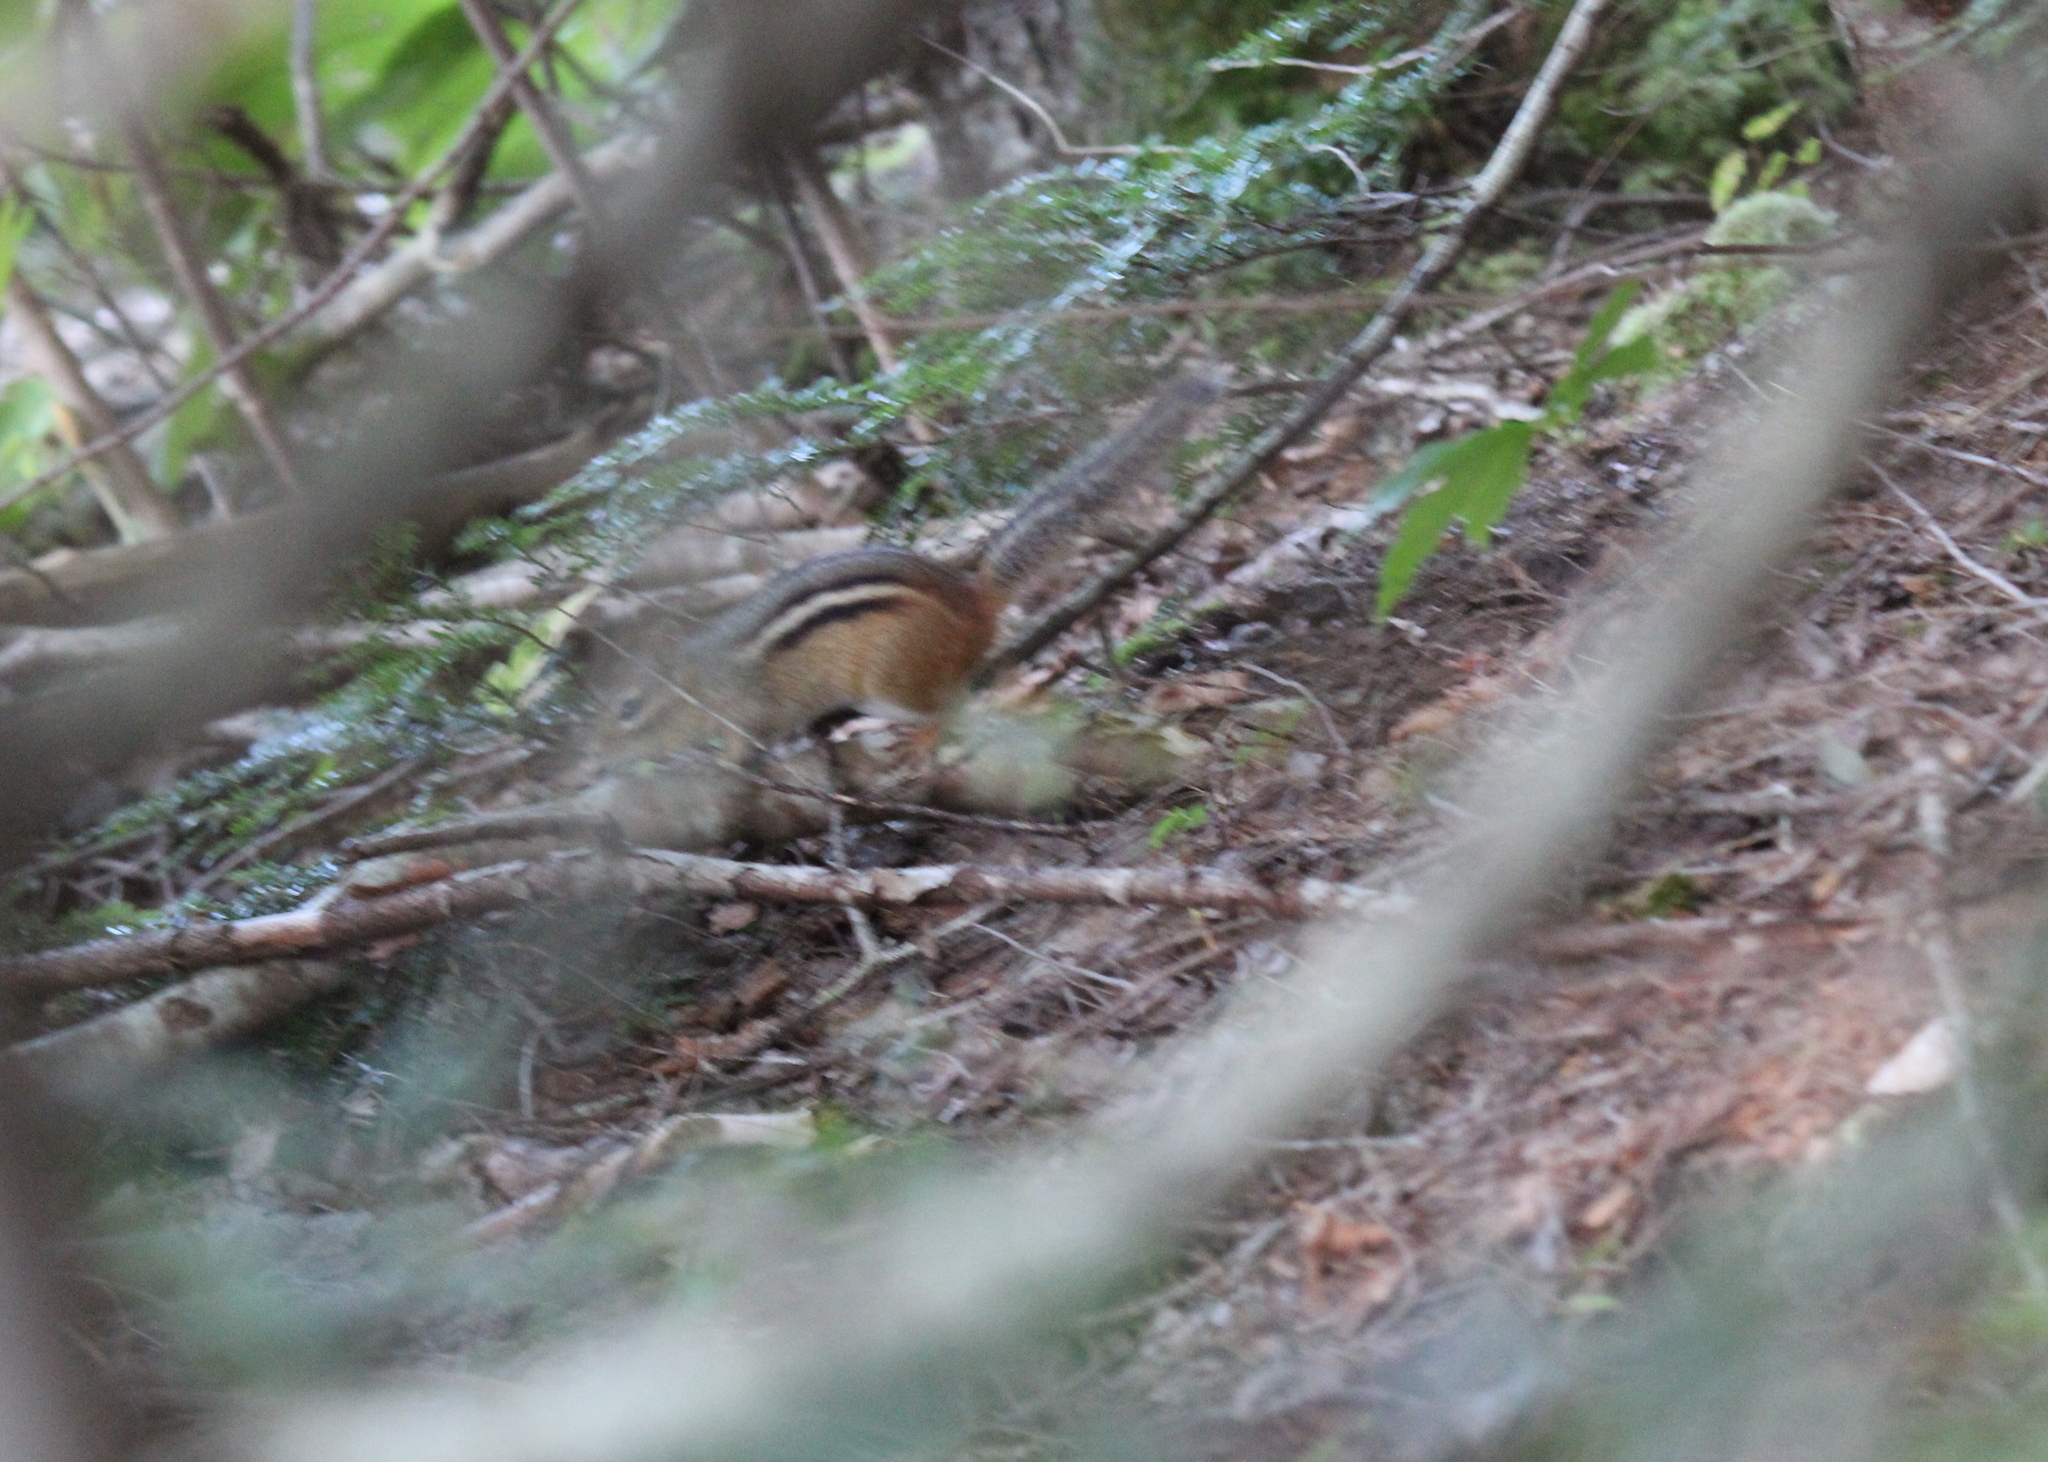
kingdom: Animalia
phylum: Chordata
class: Mammalia
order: Rodentia
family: Sciuridae
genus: Tamias
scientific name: Tamias striatus
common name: Eastern chipmunk
